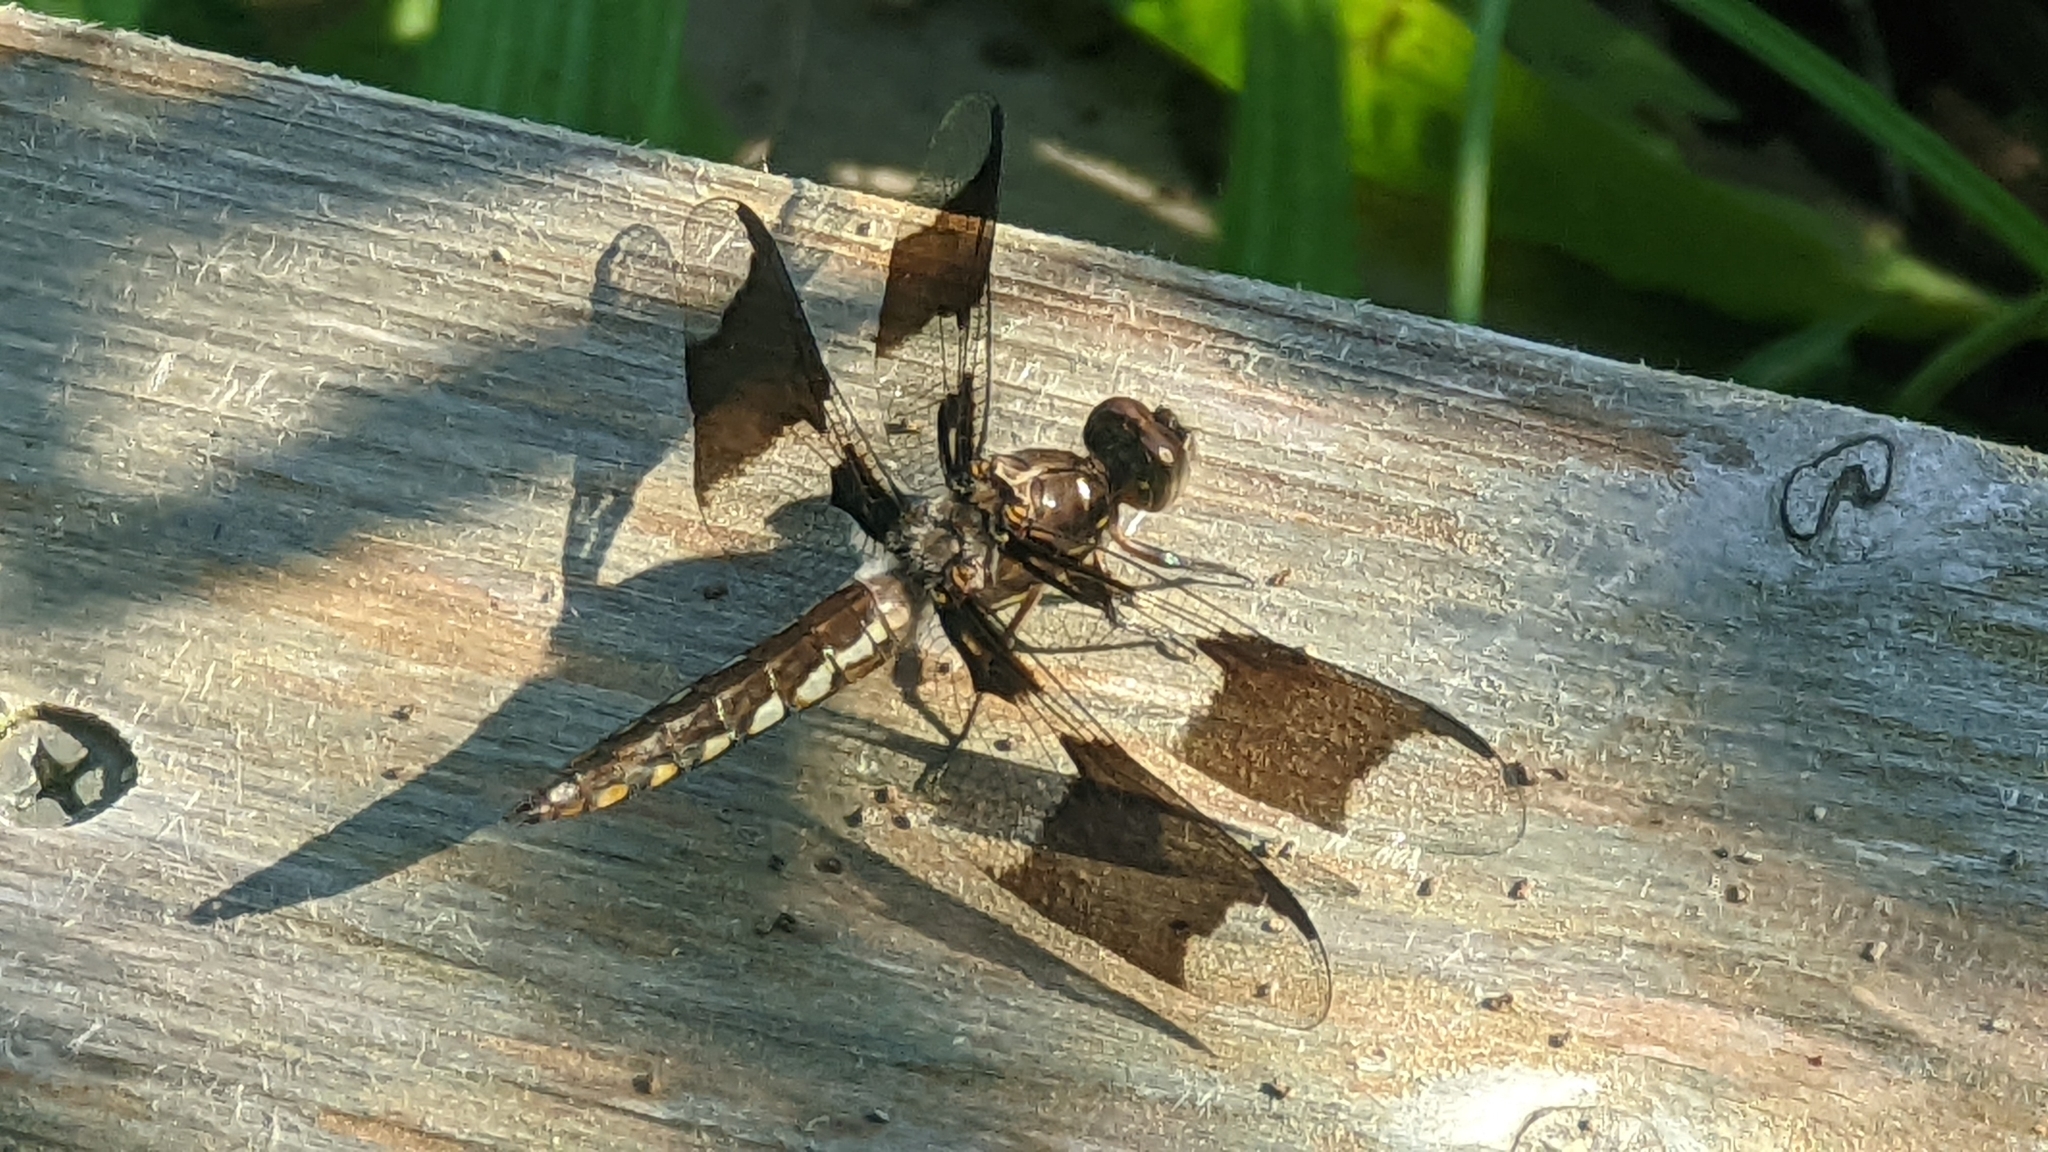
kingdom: Animalia
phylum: Arthropoda
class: Insecta
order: Odonata
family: Libellulidae
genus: Plathemis
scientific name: Plathemis lydia
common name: Common whitetail
